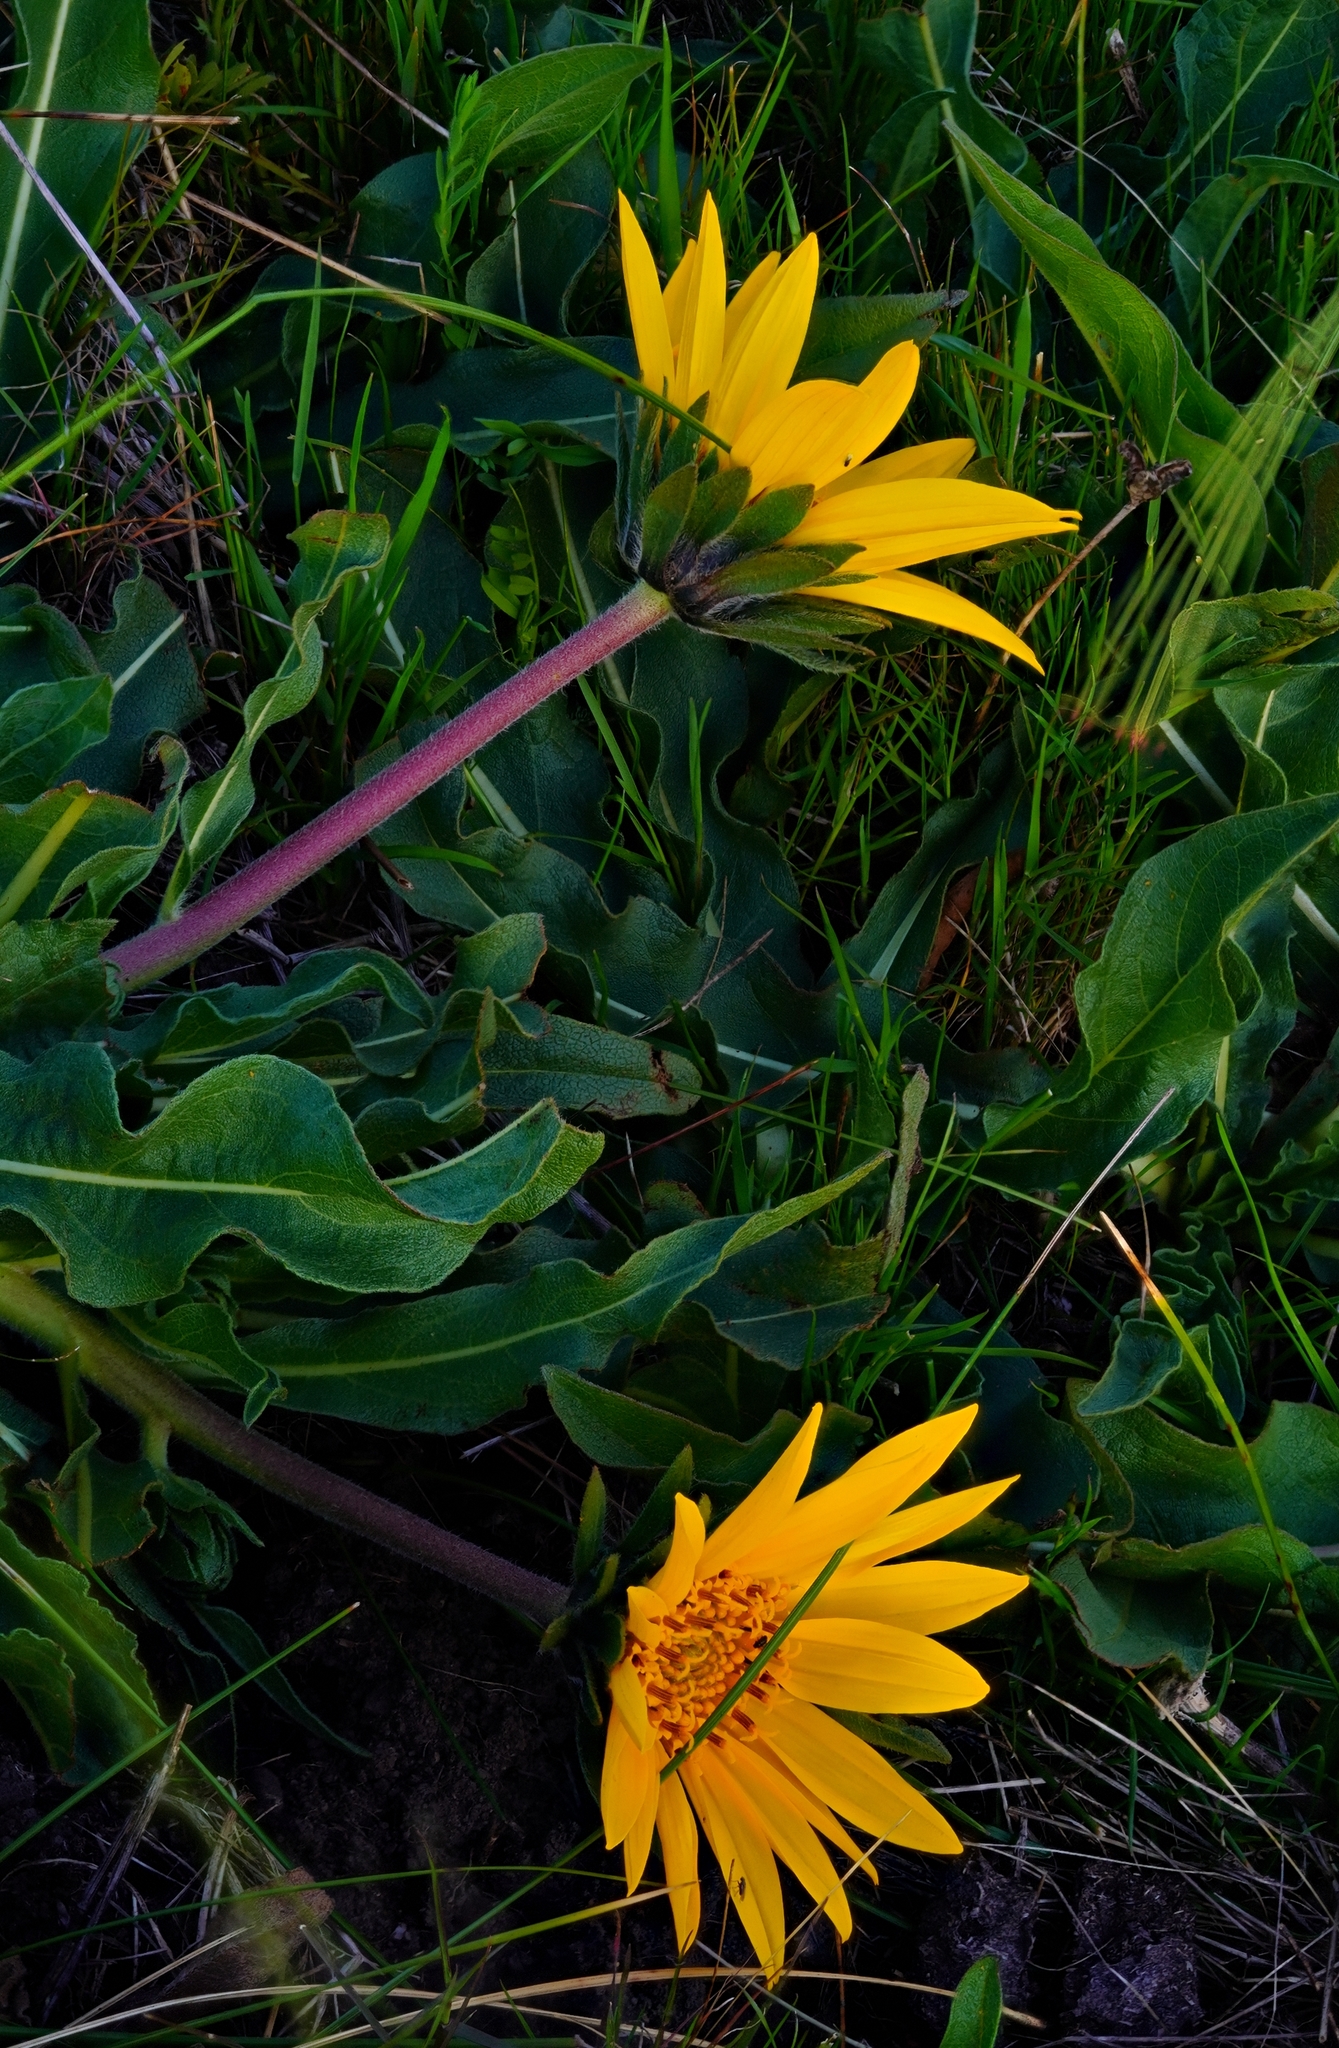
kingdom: Plantae
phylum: Tracheophyta
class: Magnoliopsida
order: Asterales
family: Asteraceae
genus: Wyethia
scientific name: Wyethia angustifolia
